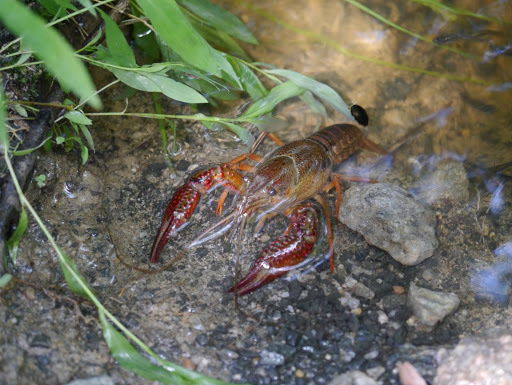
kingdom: Animalia
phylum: Arthropoda
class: Malacostraca
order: Decapoda
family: Cambaridae
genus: Procambarus
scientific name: Procambarus clarkii
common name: Red swamp crayfish
